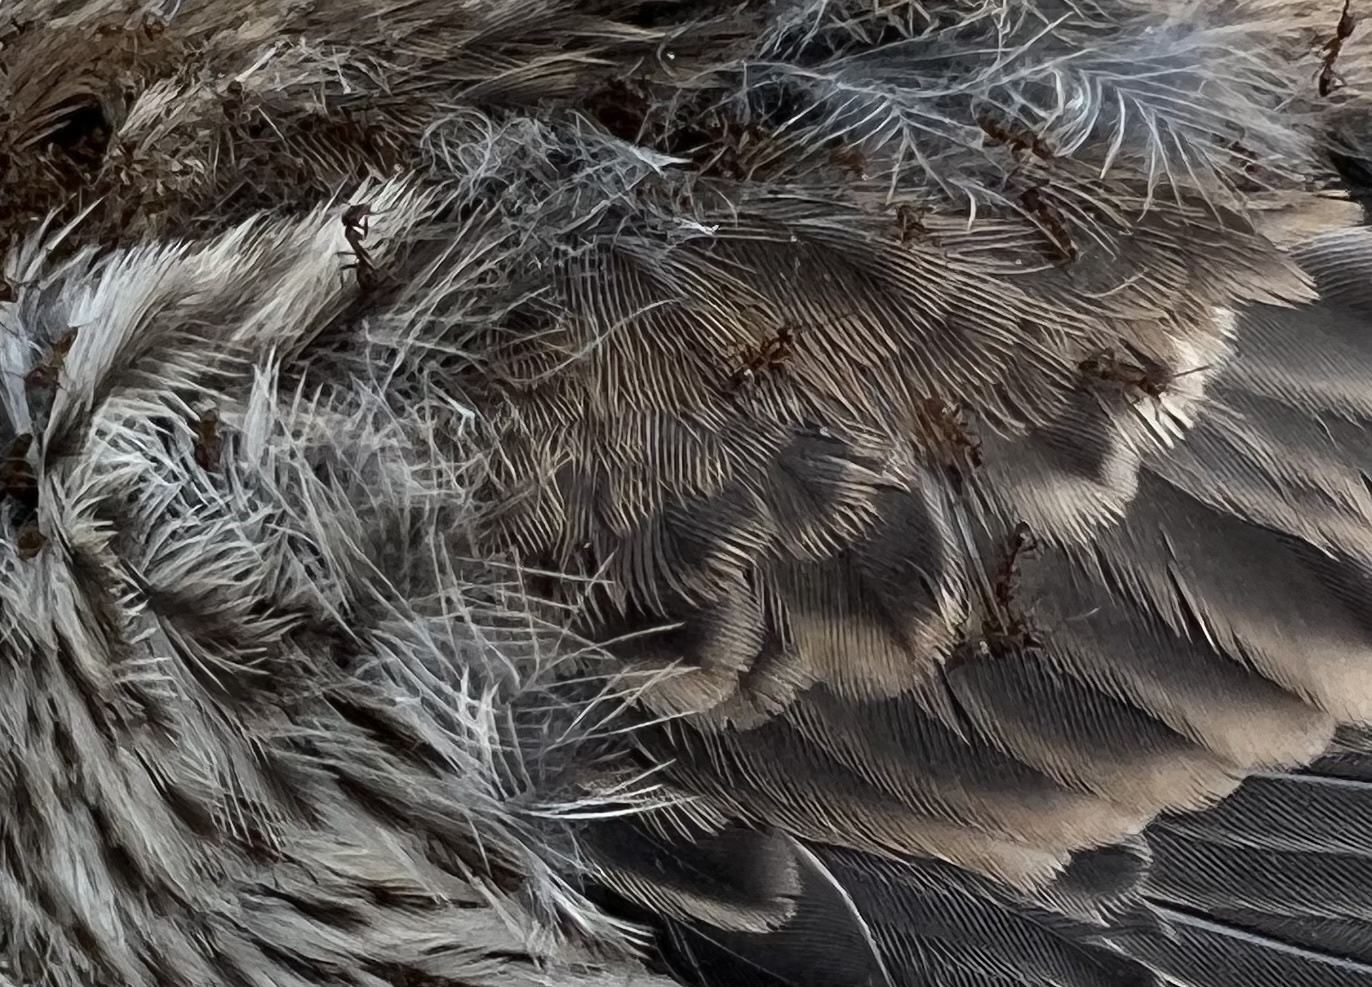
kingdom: Animalia
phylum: Arthropoda
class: Insecta
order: Hymenoptera
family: Formicidae
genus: Linepithema
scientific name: Linepithema humile
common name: Argentine ant
